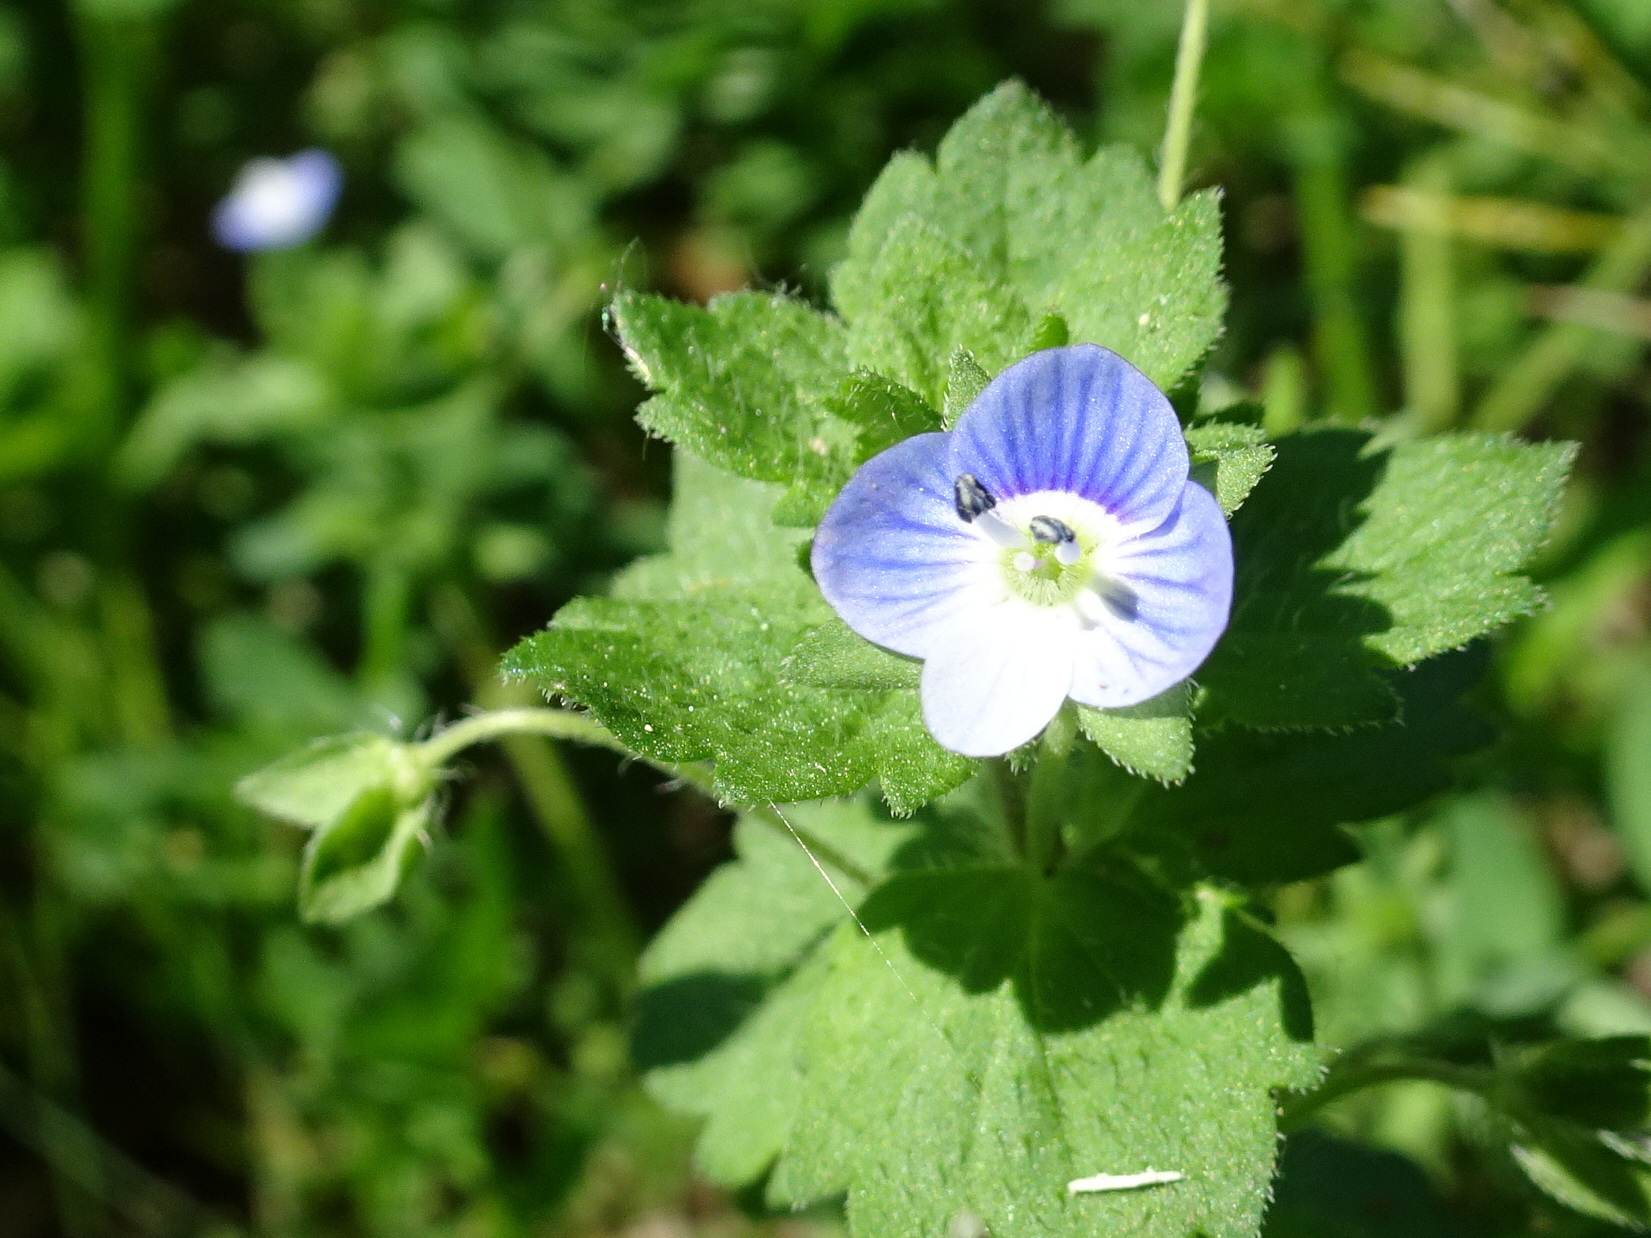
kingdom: Plantae
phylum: Tracheophyta
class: Magnoliopsida
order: Lamiales
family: Plantaginaceae
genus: Veronica
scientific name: Veronica persica
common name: Common field-speedwell
